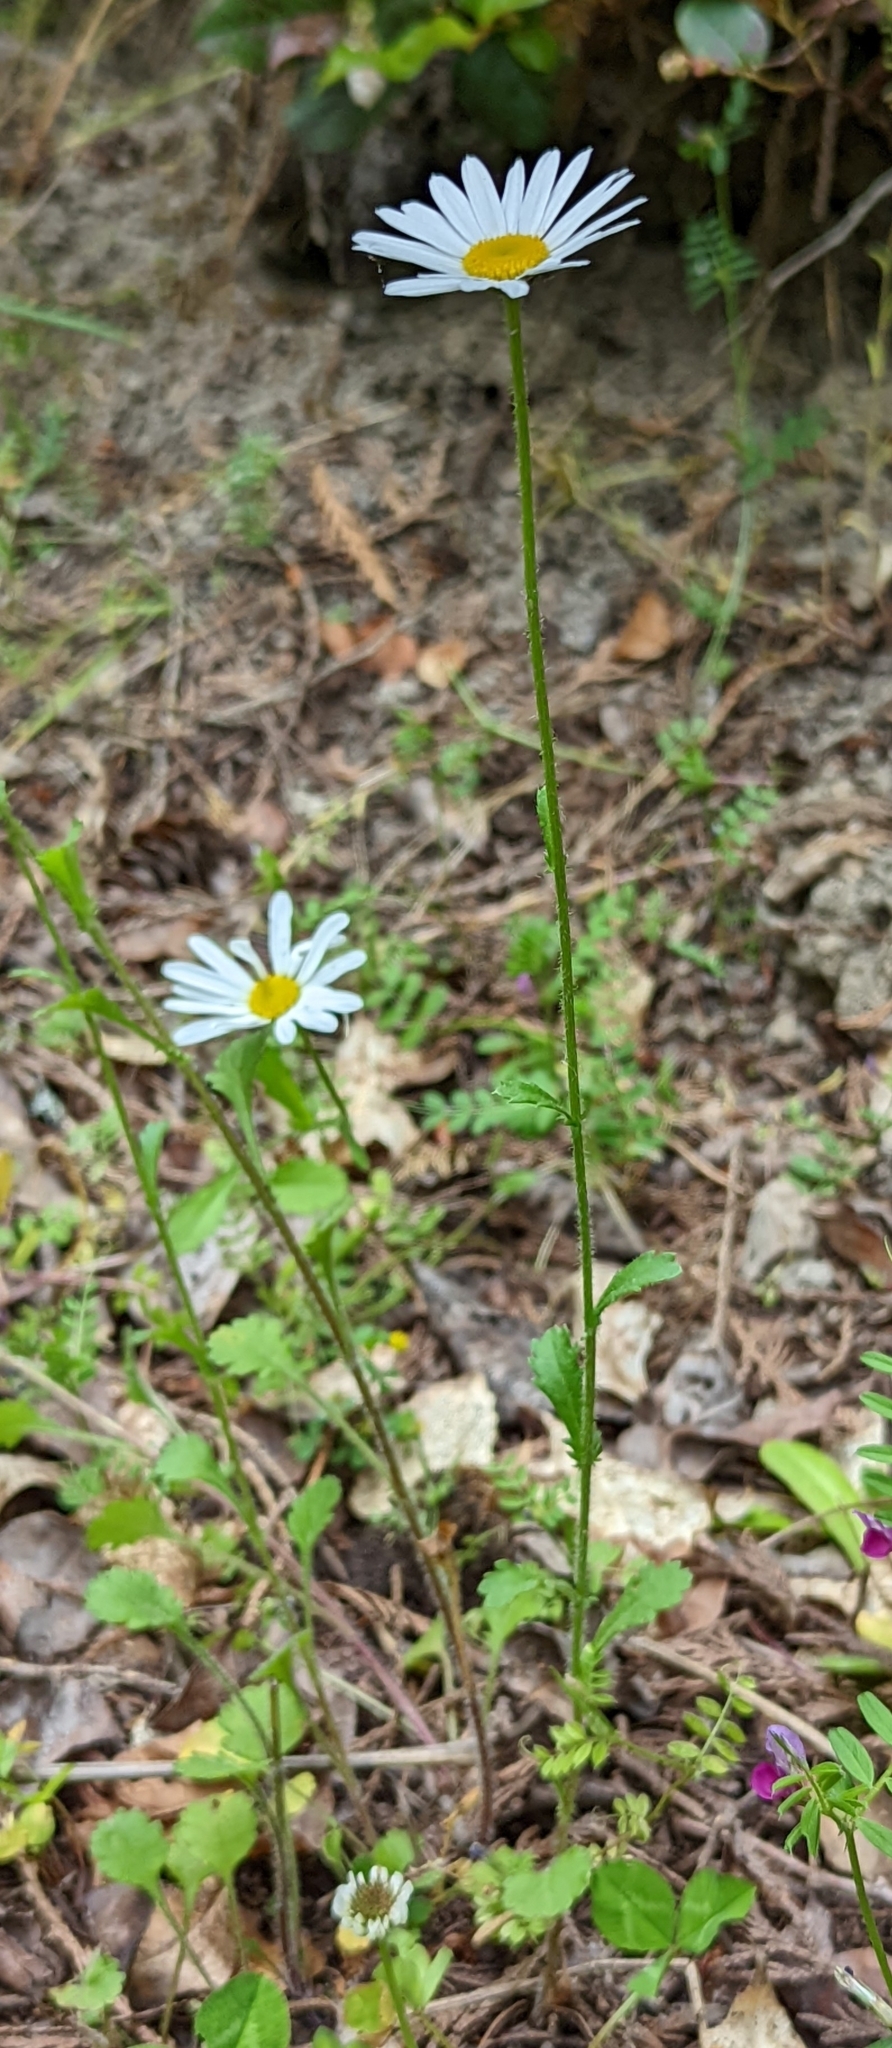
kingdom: Plantae
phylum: Tracheophyta
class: Magnoliopsida
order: Asterales
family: Asteraceae
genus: Leucanthemum
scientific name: Leucanthemum vulgare
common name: Oxeye daisy
